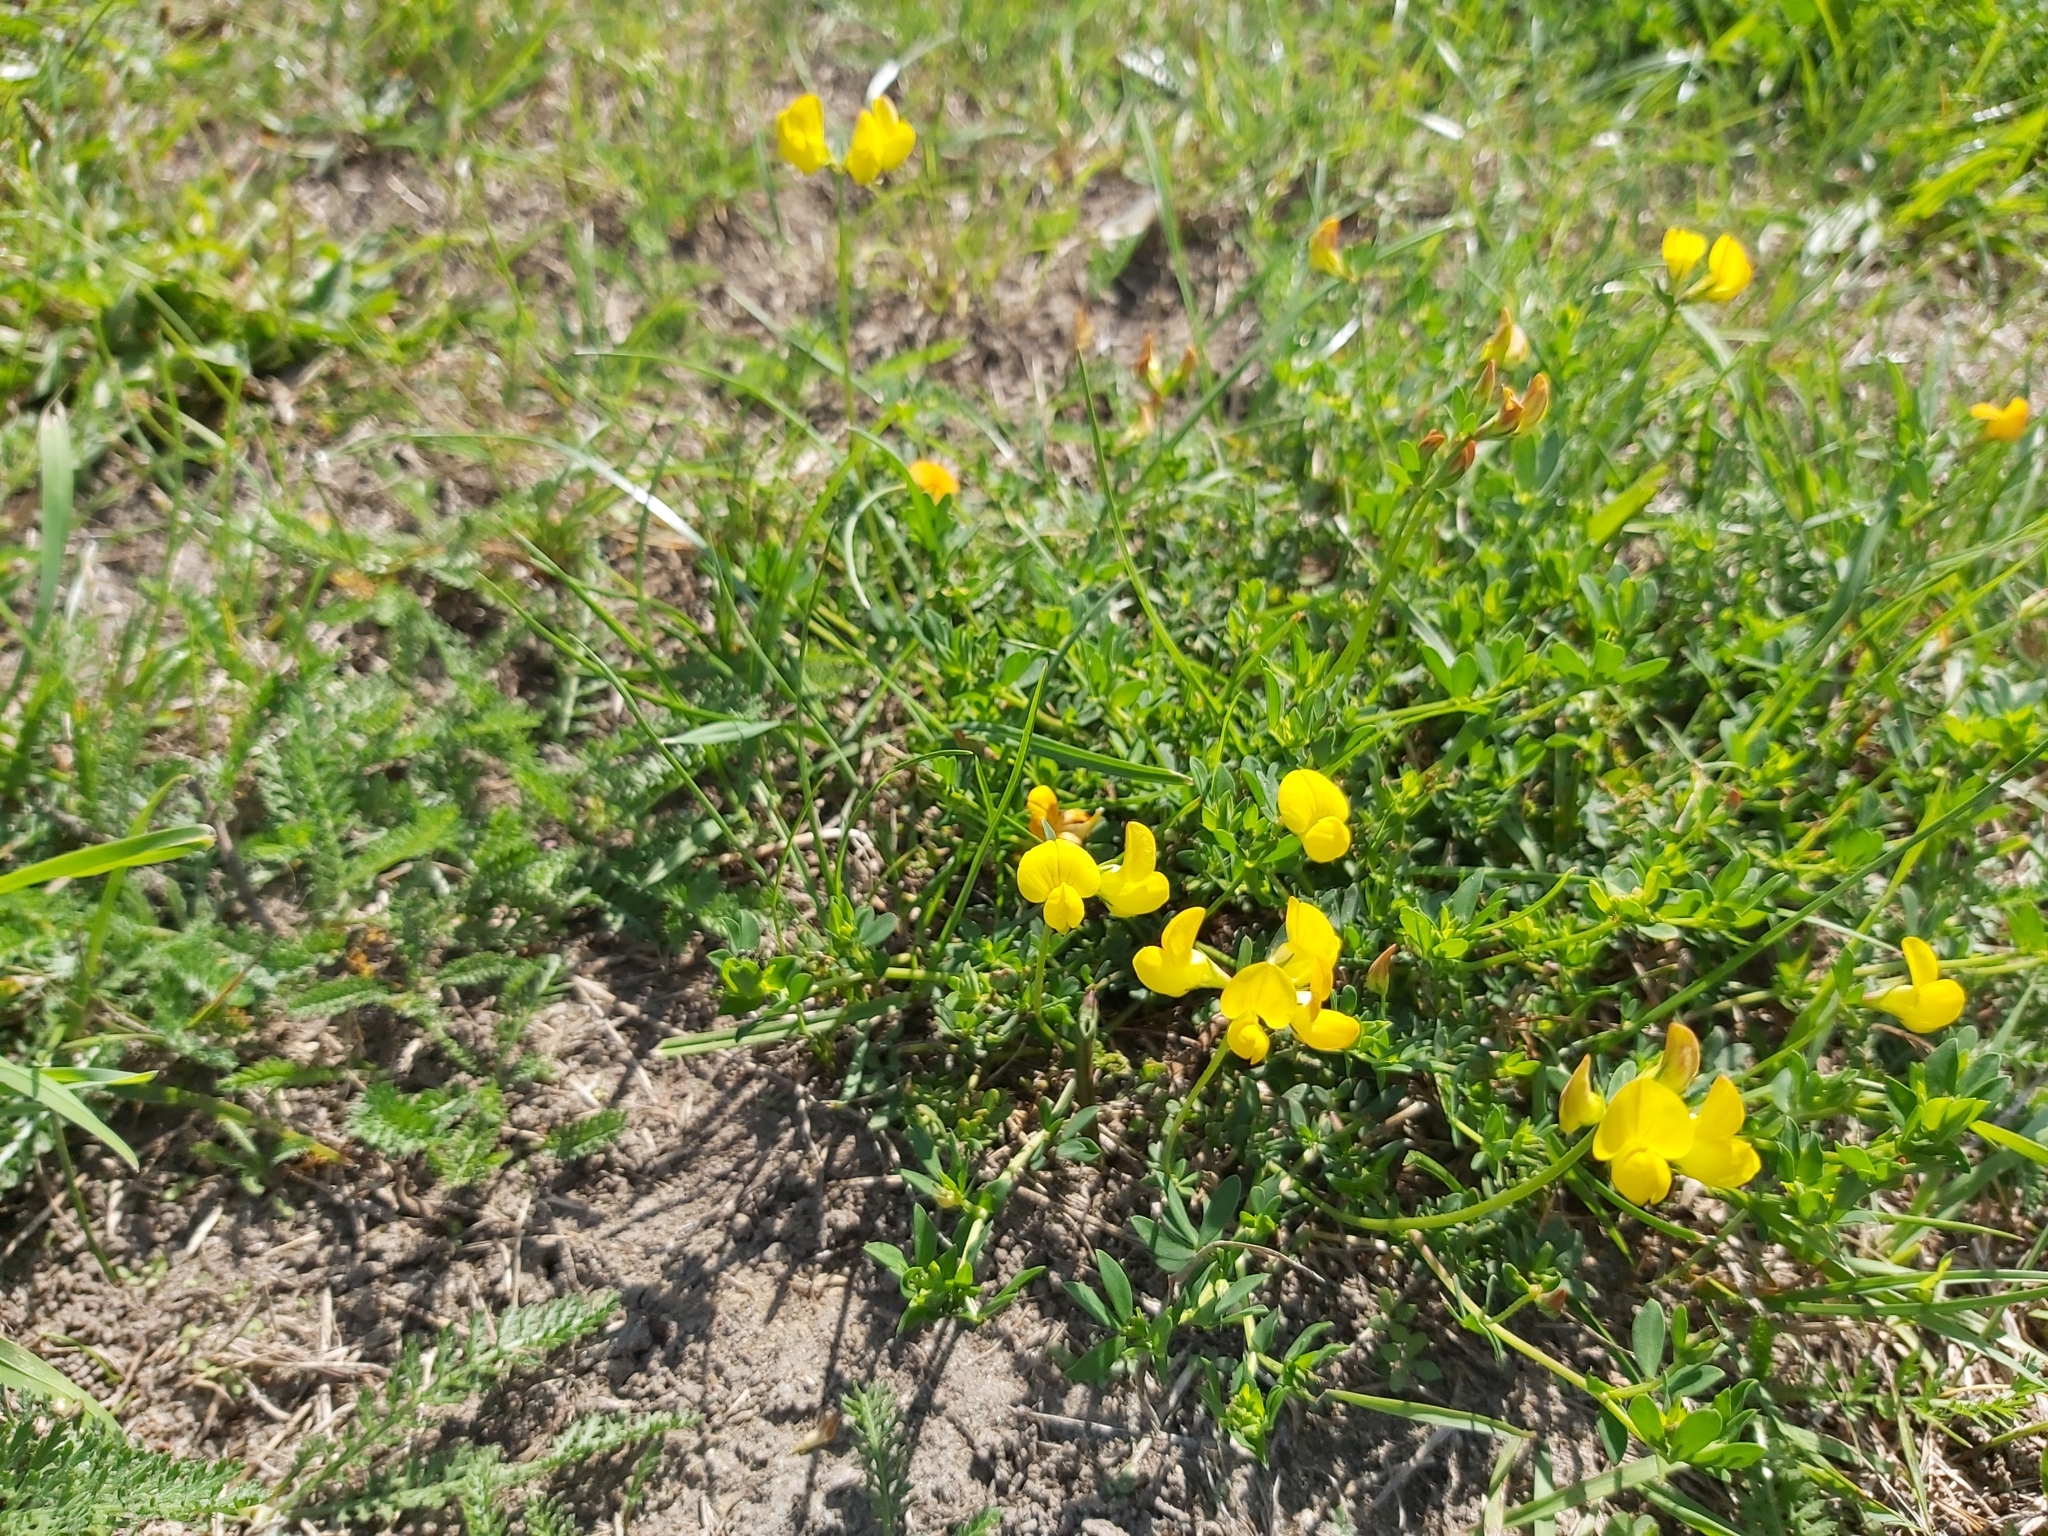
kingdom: Plantae
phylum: Tracheophyta
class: Magnoliopsida
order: Fabales
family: Fabaceae
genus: Lotus
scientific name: Lotus corniculatus
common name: Common bird's-foot-trefoil
